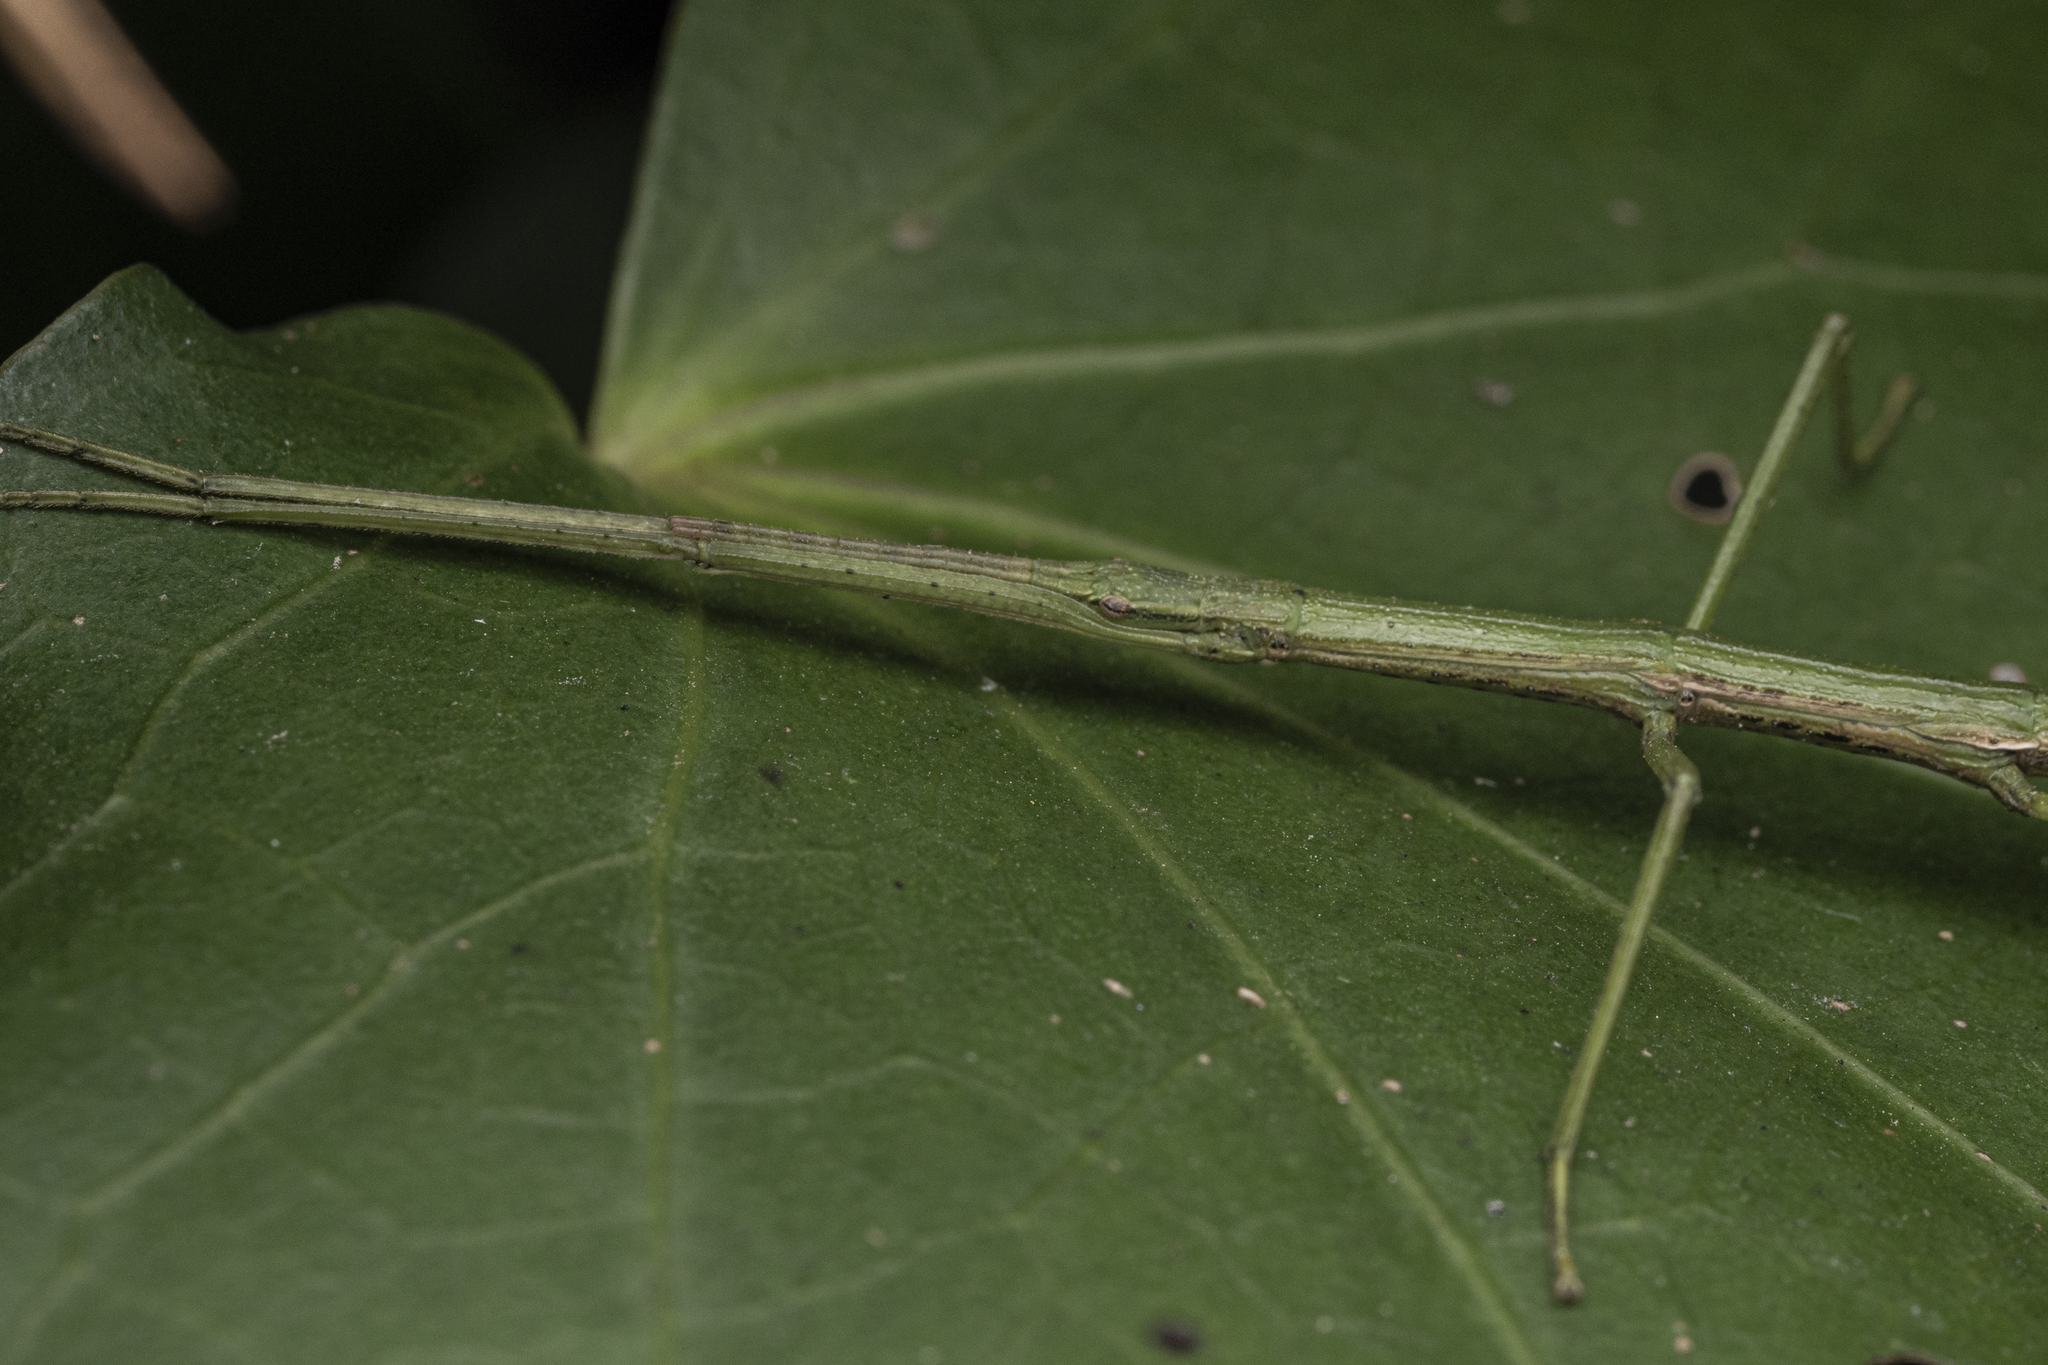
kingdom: Animalia
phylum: Arthropoda
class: Insecta
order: Phasmida
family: Phasmatidae
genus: Tectarchus
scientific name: Tectarchus salebrosus
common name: Lesser rough-skinned stick insect
